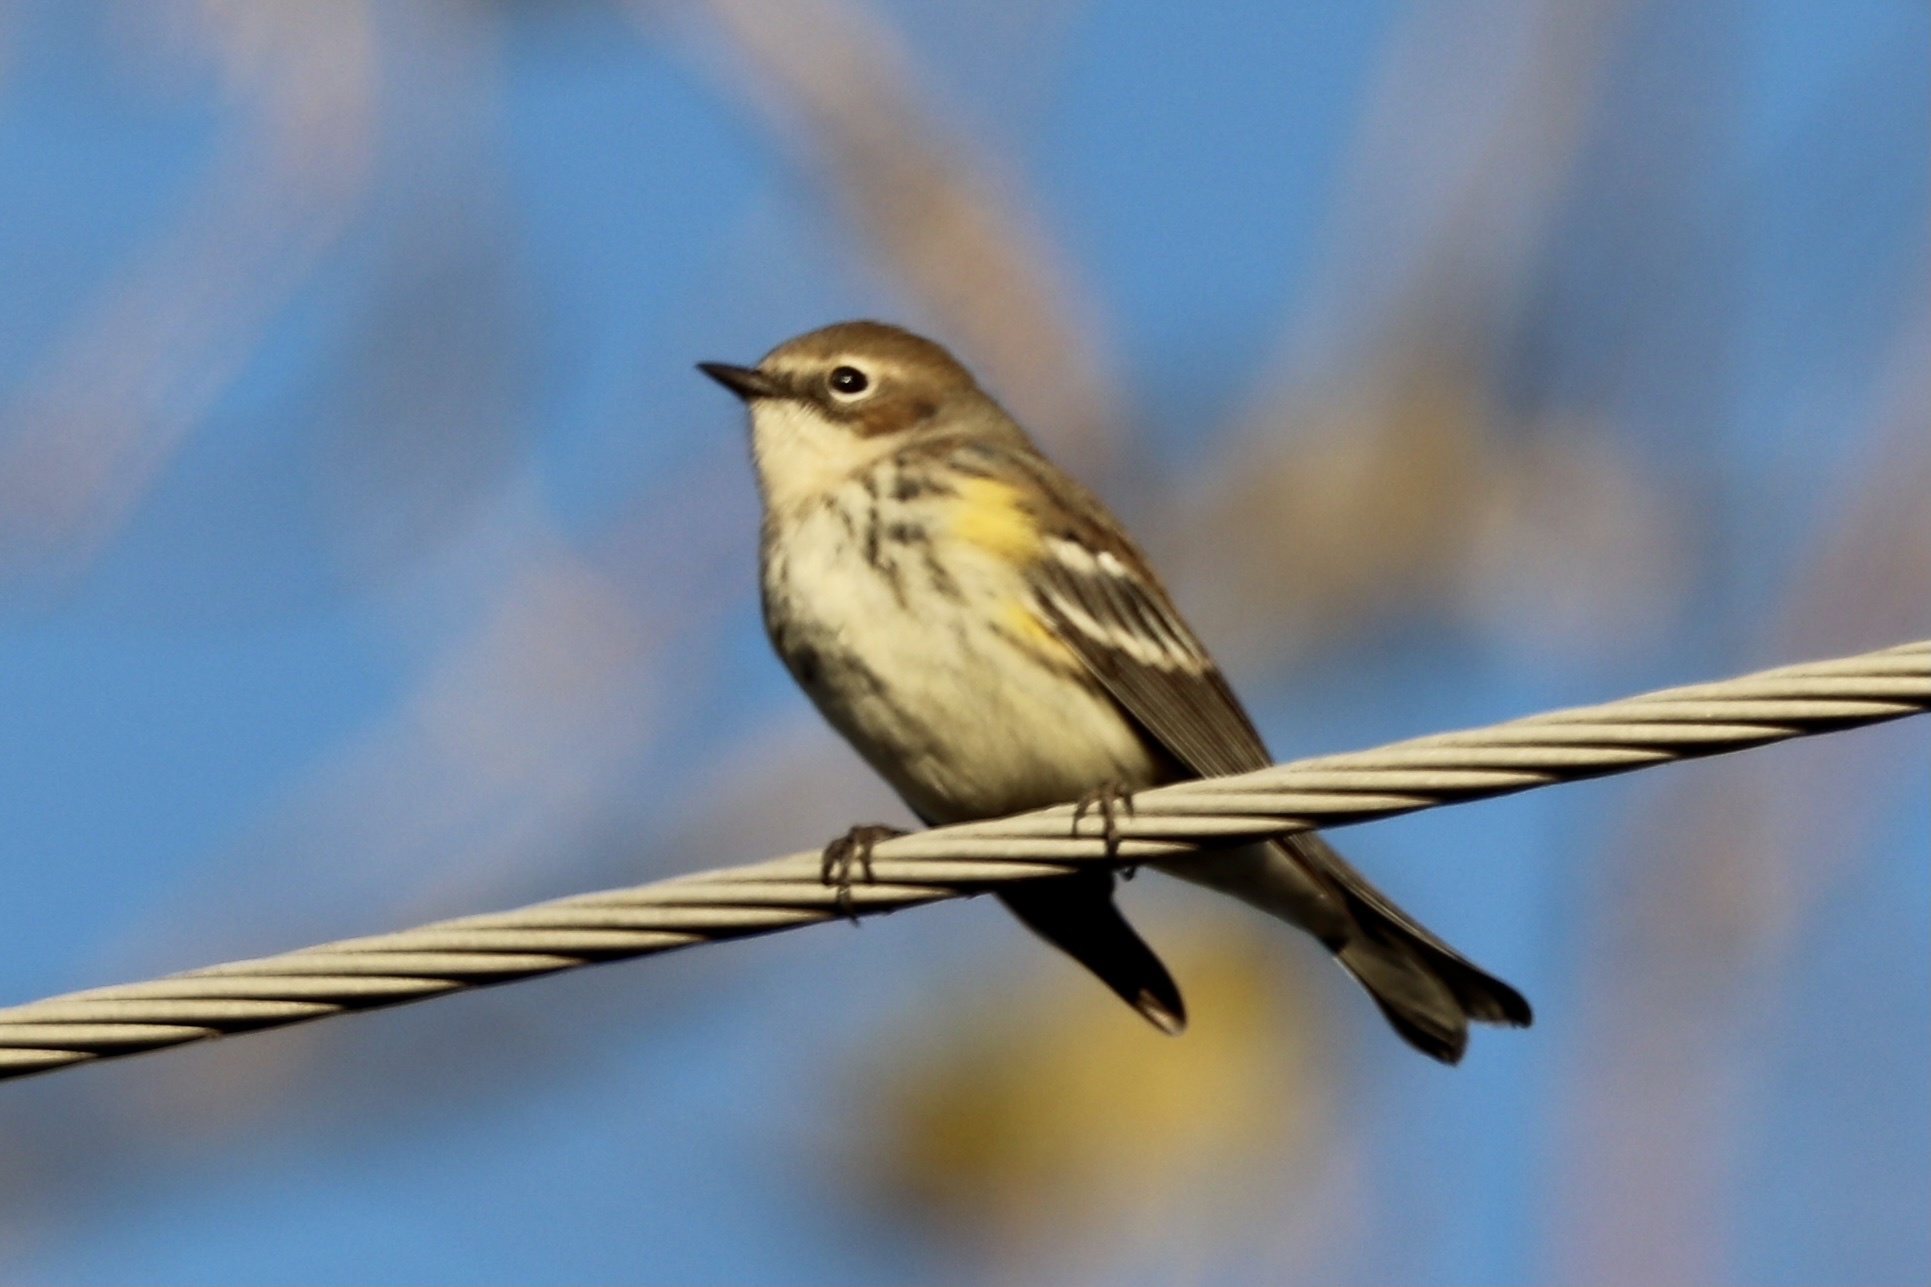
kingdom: Animalia
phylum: Chordata
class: Aves
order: Passeriformes
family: Parulidae
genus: Setophaga
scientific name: Setophaga coronata
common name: Myrtle warbler
